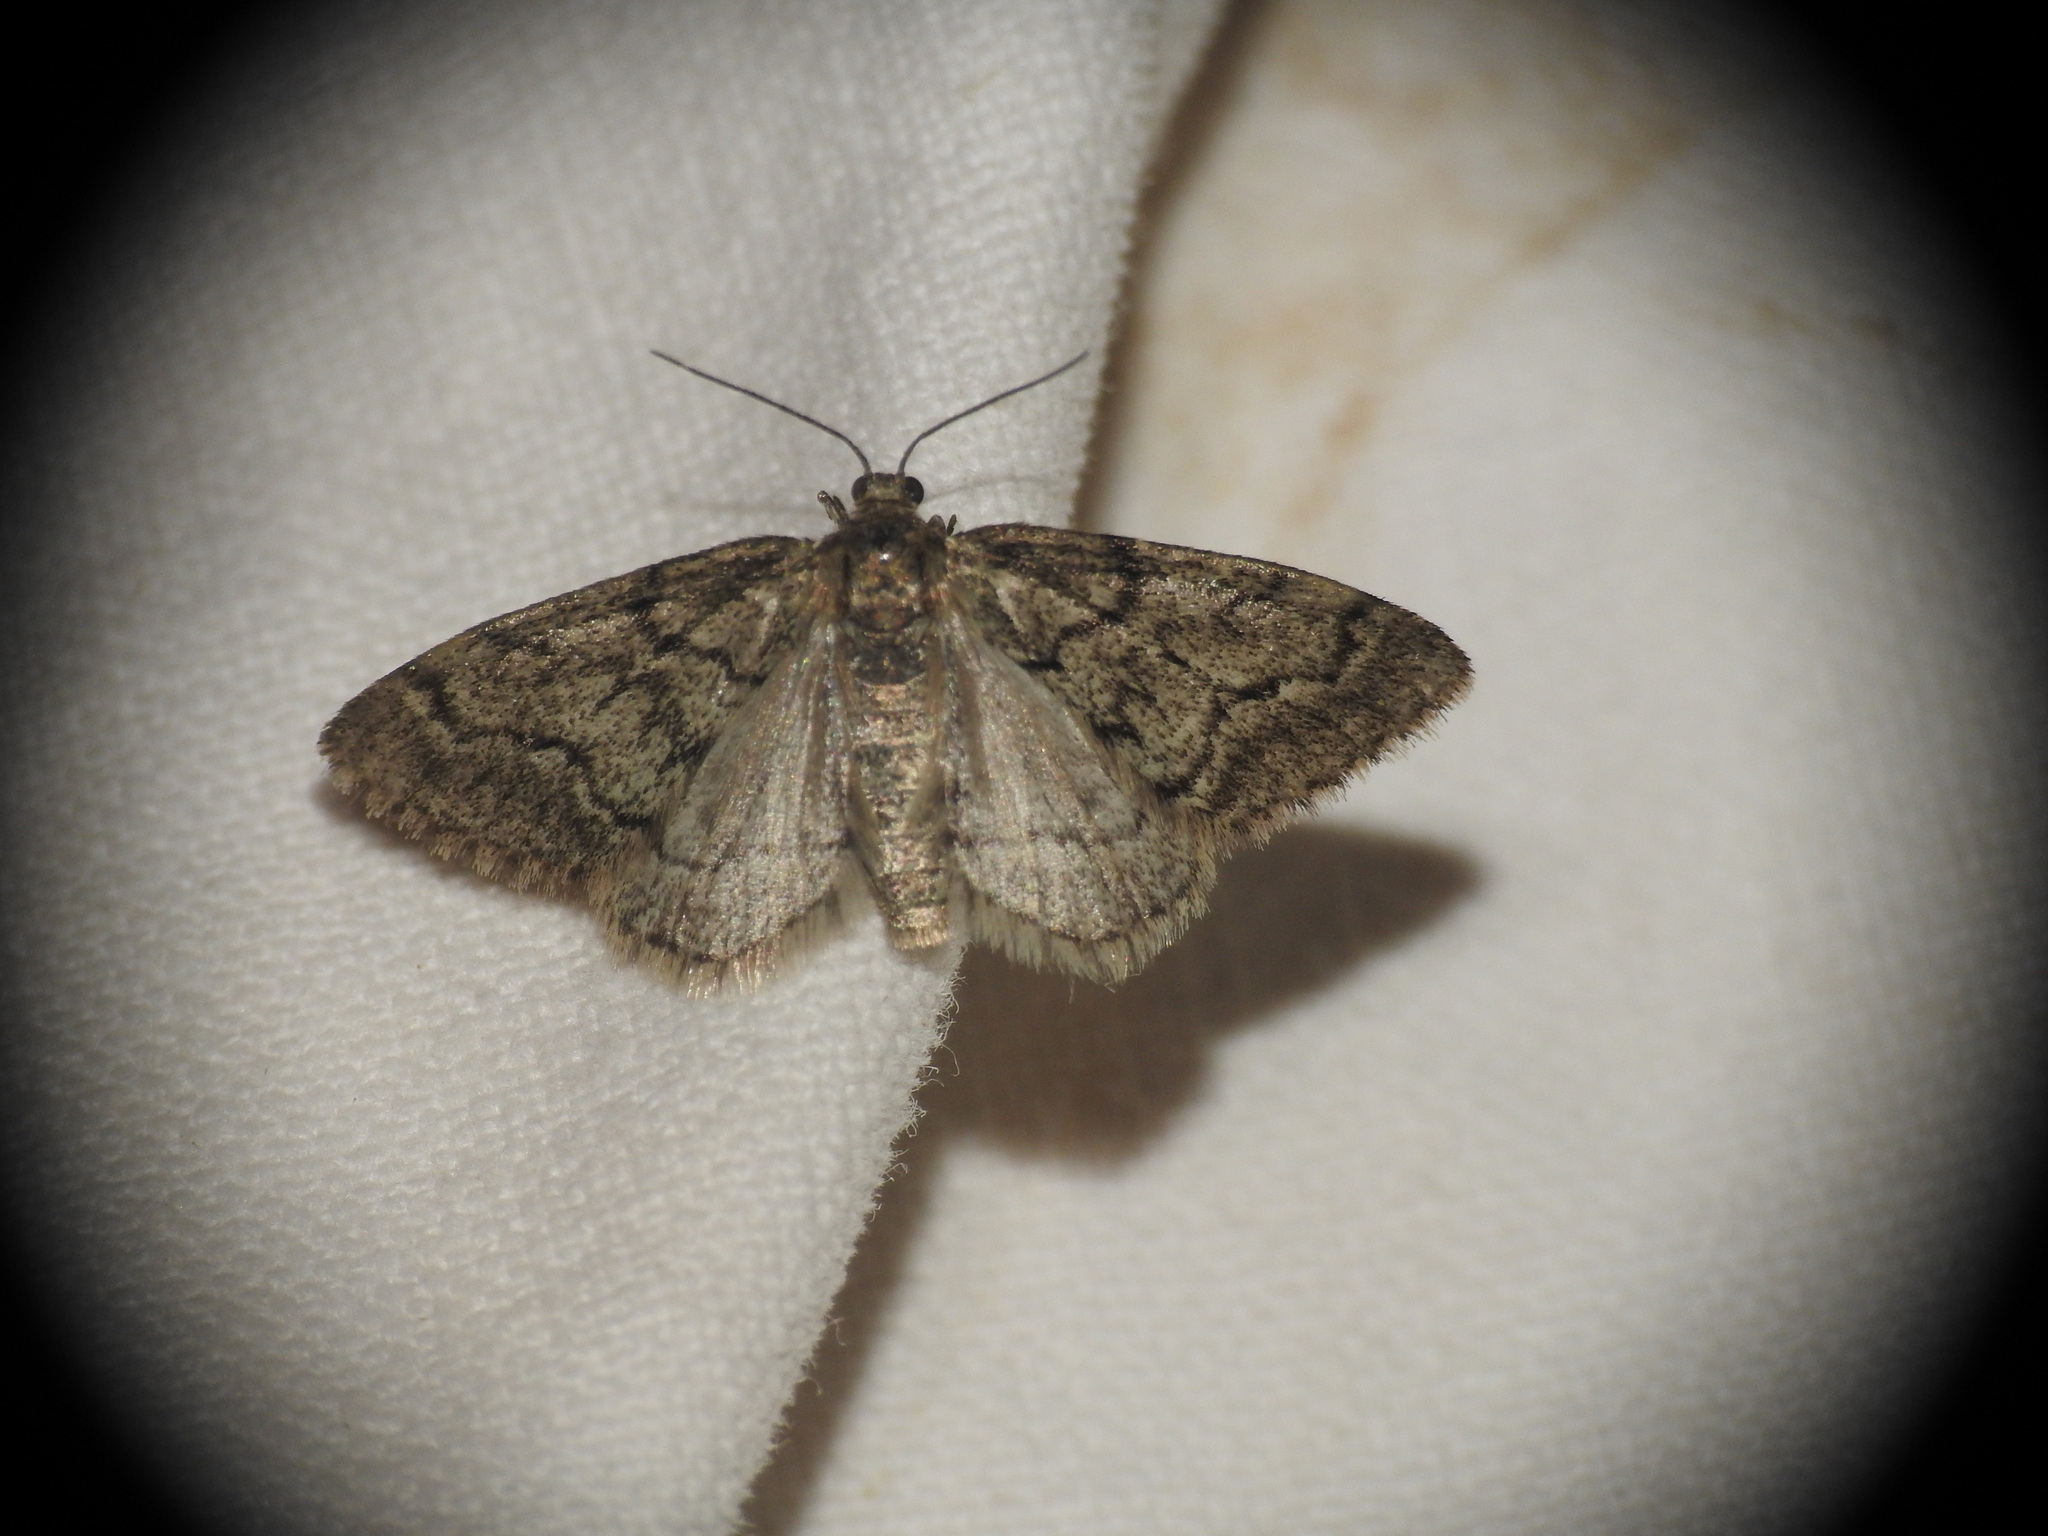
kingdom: Animalia
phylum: Arthropoda
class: Insecta
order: Lepidoptera
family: Geometridae
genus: Tephronia
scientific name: Tephronia sepiaria
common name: Dusky carpet
